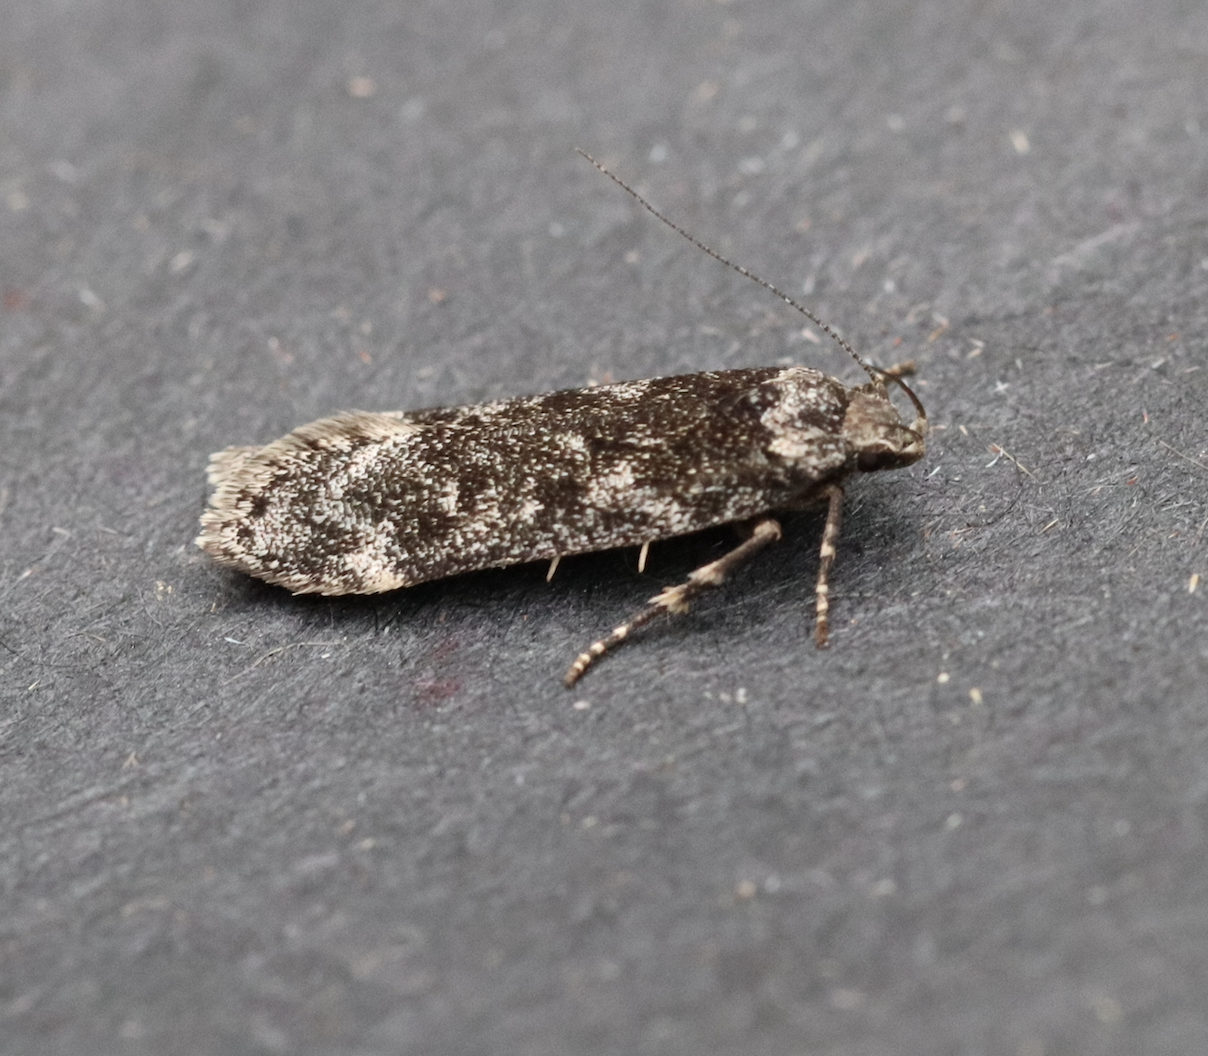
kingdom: Animalia
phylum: Arthropoda
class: Insecta
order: Lepidoptera
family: Gelechiidae
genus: Anacampsis
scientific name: Anacampsis niveopulvella
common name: Pale-headed aspen leafroller moth
